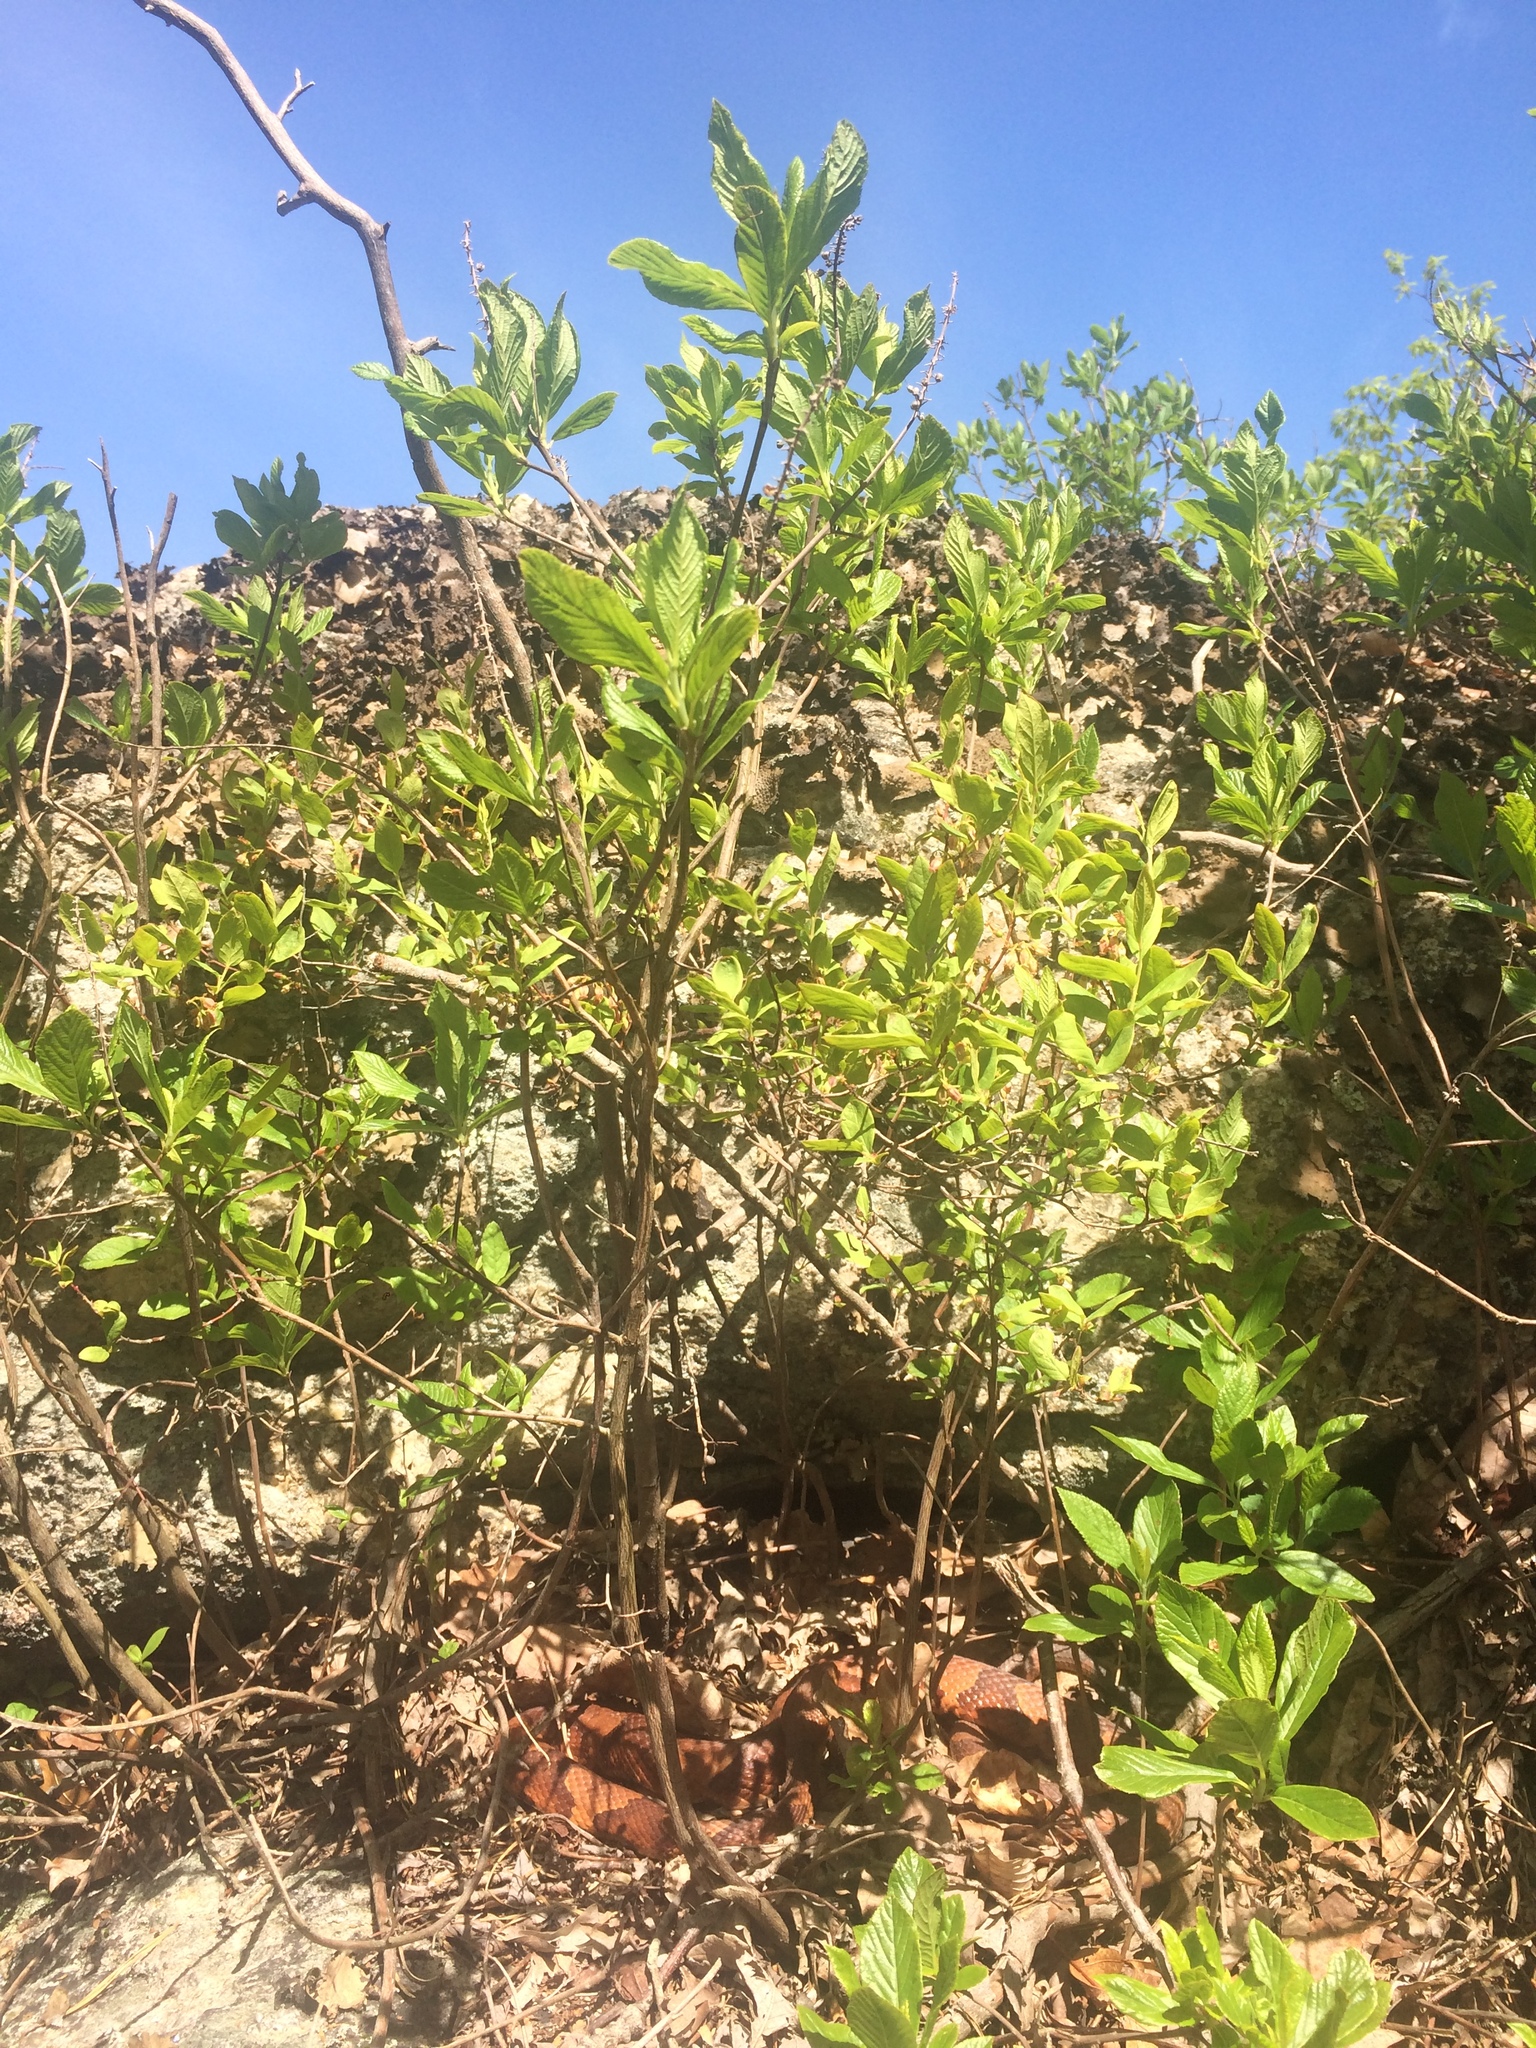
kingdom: Animalia
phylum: Chordata
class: Squamata
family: Viperidae
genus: Agkistrodon
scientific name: Agkistrodon contortrix
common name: Northern copperhead
